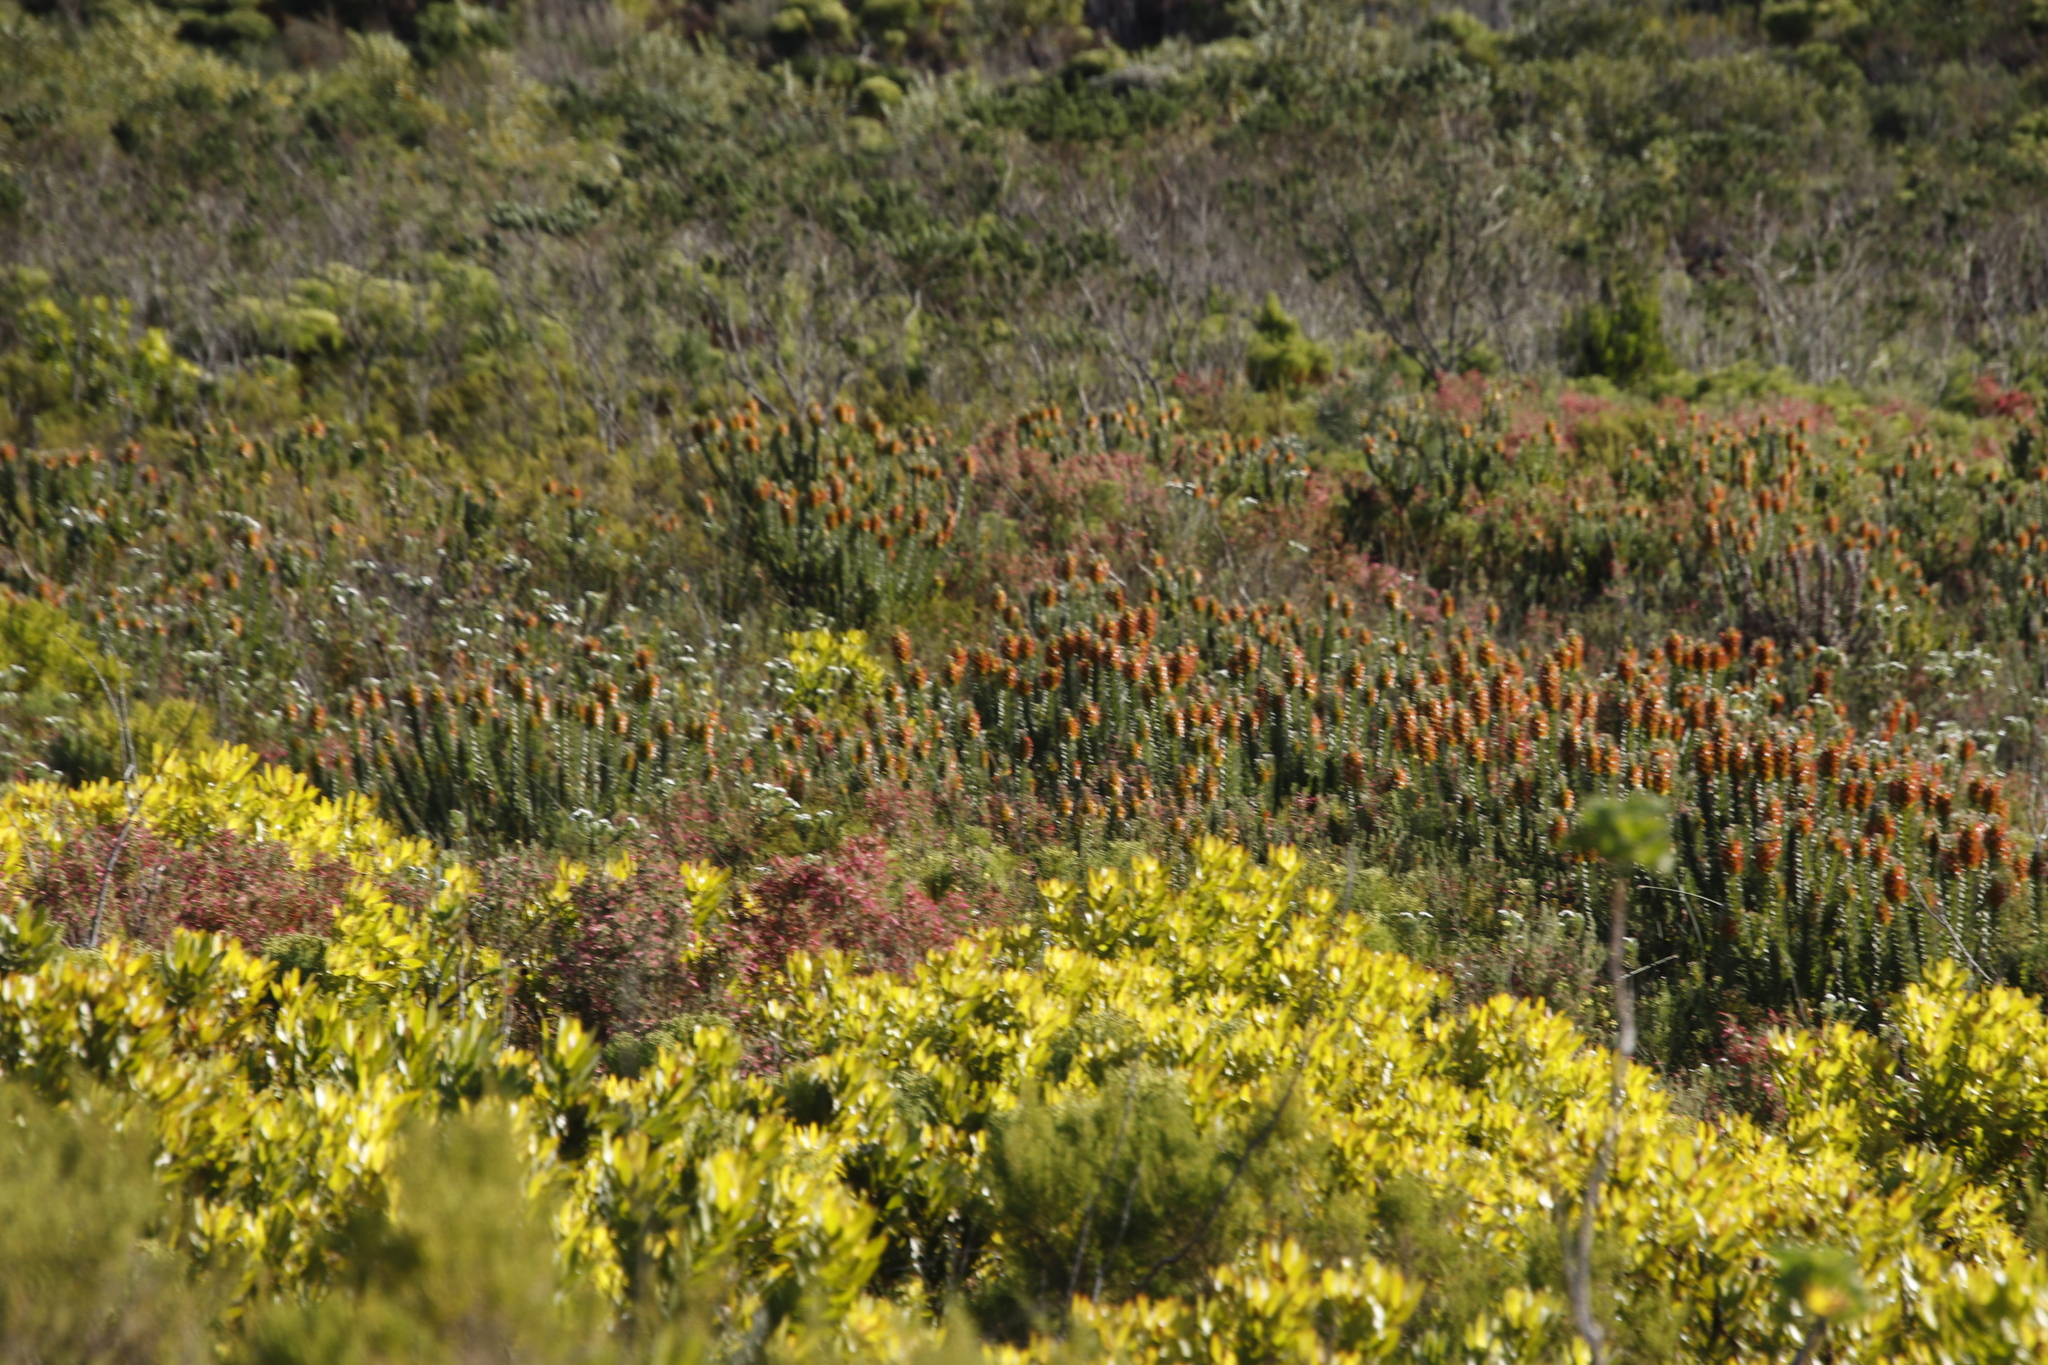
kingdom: Plantae
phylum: Tracheophyta
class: Magnoliopsida
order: Proteales
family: Proteaceae
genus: Mimetes
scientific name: Mimetes hirtus
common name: Marsh pagoda
